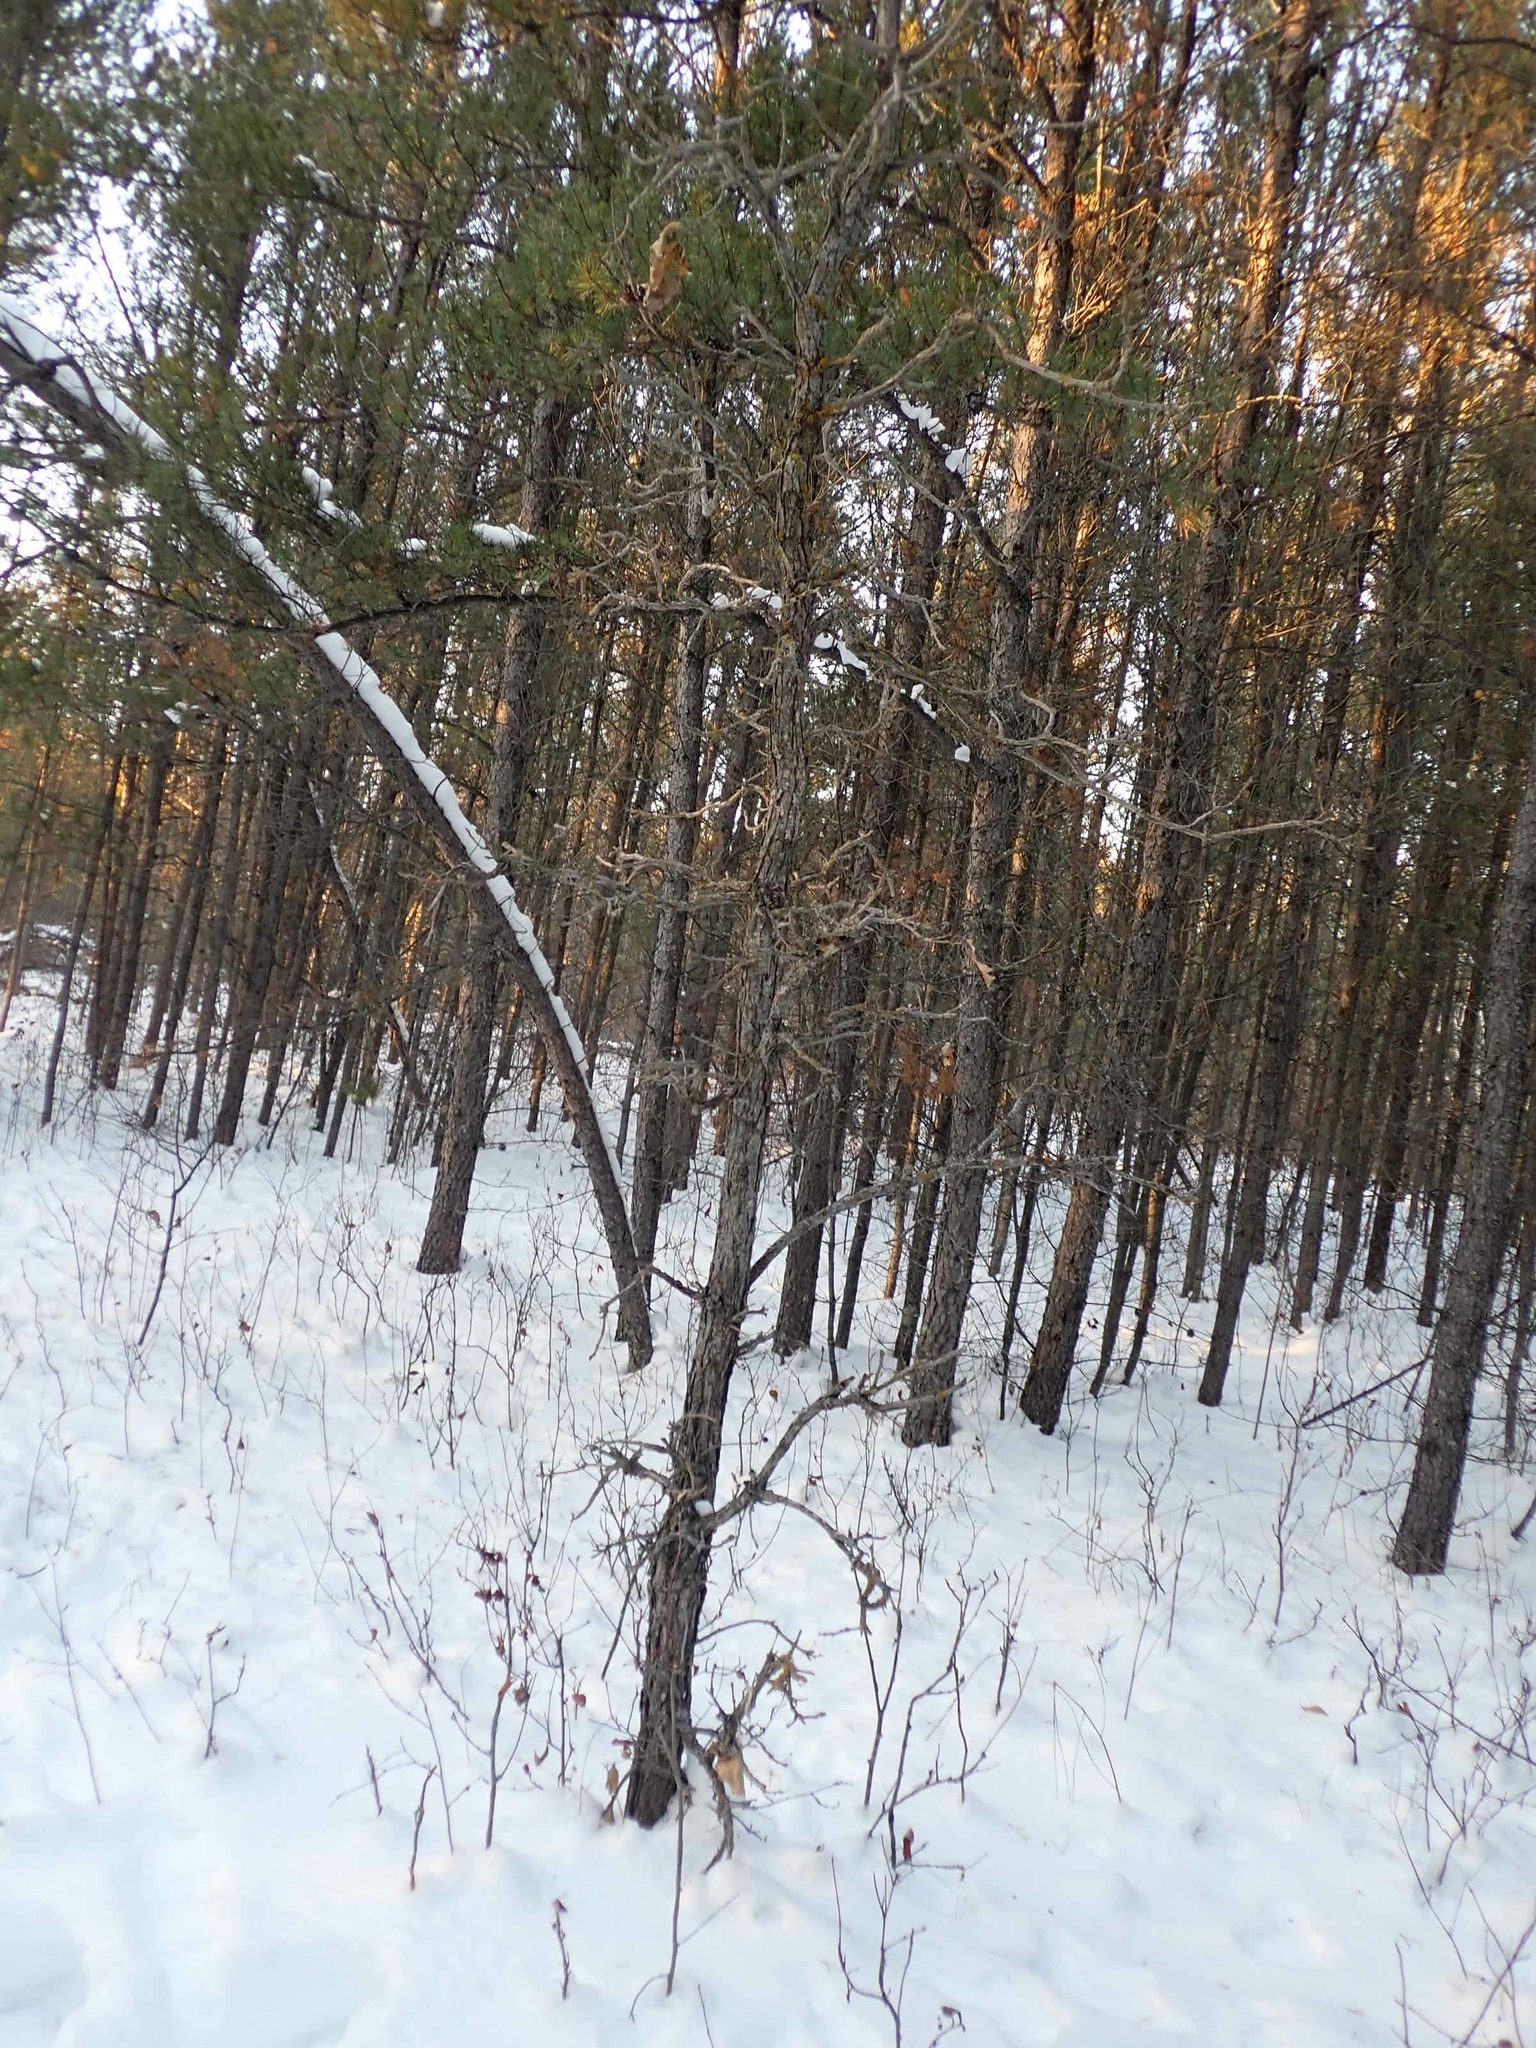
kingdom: Plantae
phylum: Tracheophyta
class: Magnoliopsida
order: Fagales
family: Fagaceae
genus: Quercus
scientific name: Quercus macrocarpa
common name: Bur oak
